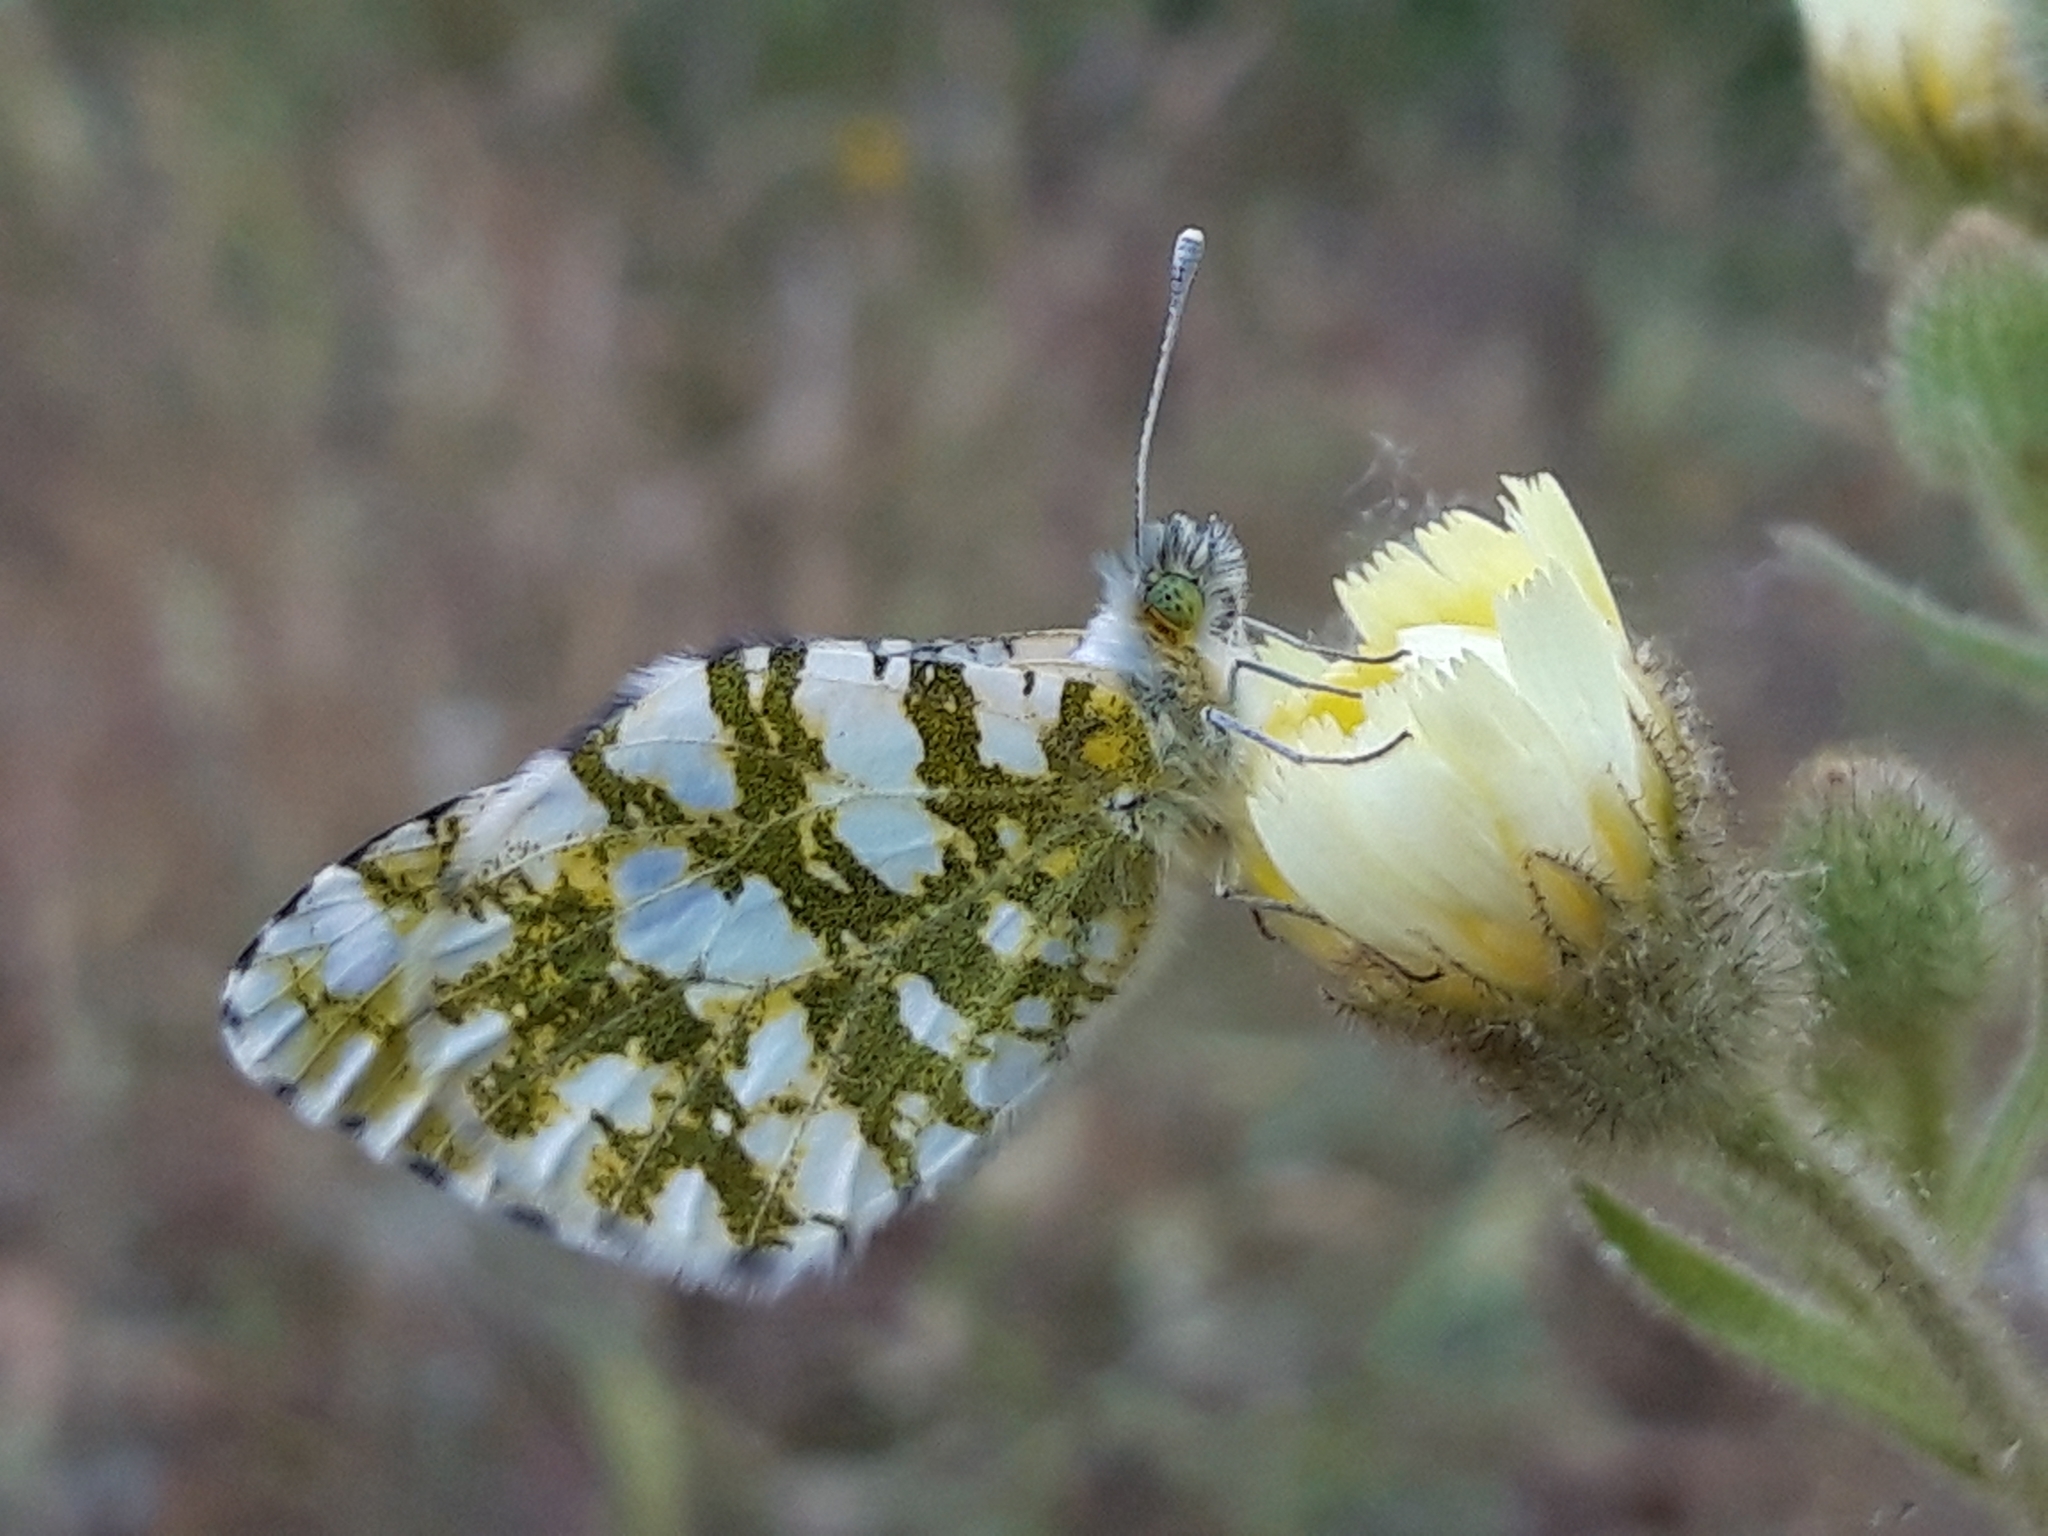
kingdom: Animalia
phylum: Arthropoda
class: Insecta
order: Lepidoptera
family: Pieridae
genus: Euchloe
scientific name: Euchloe crameri
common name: Western dappled white
